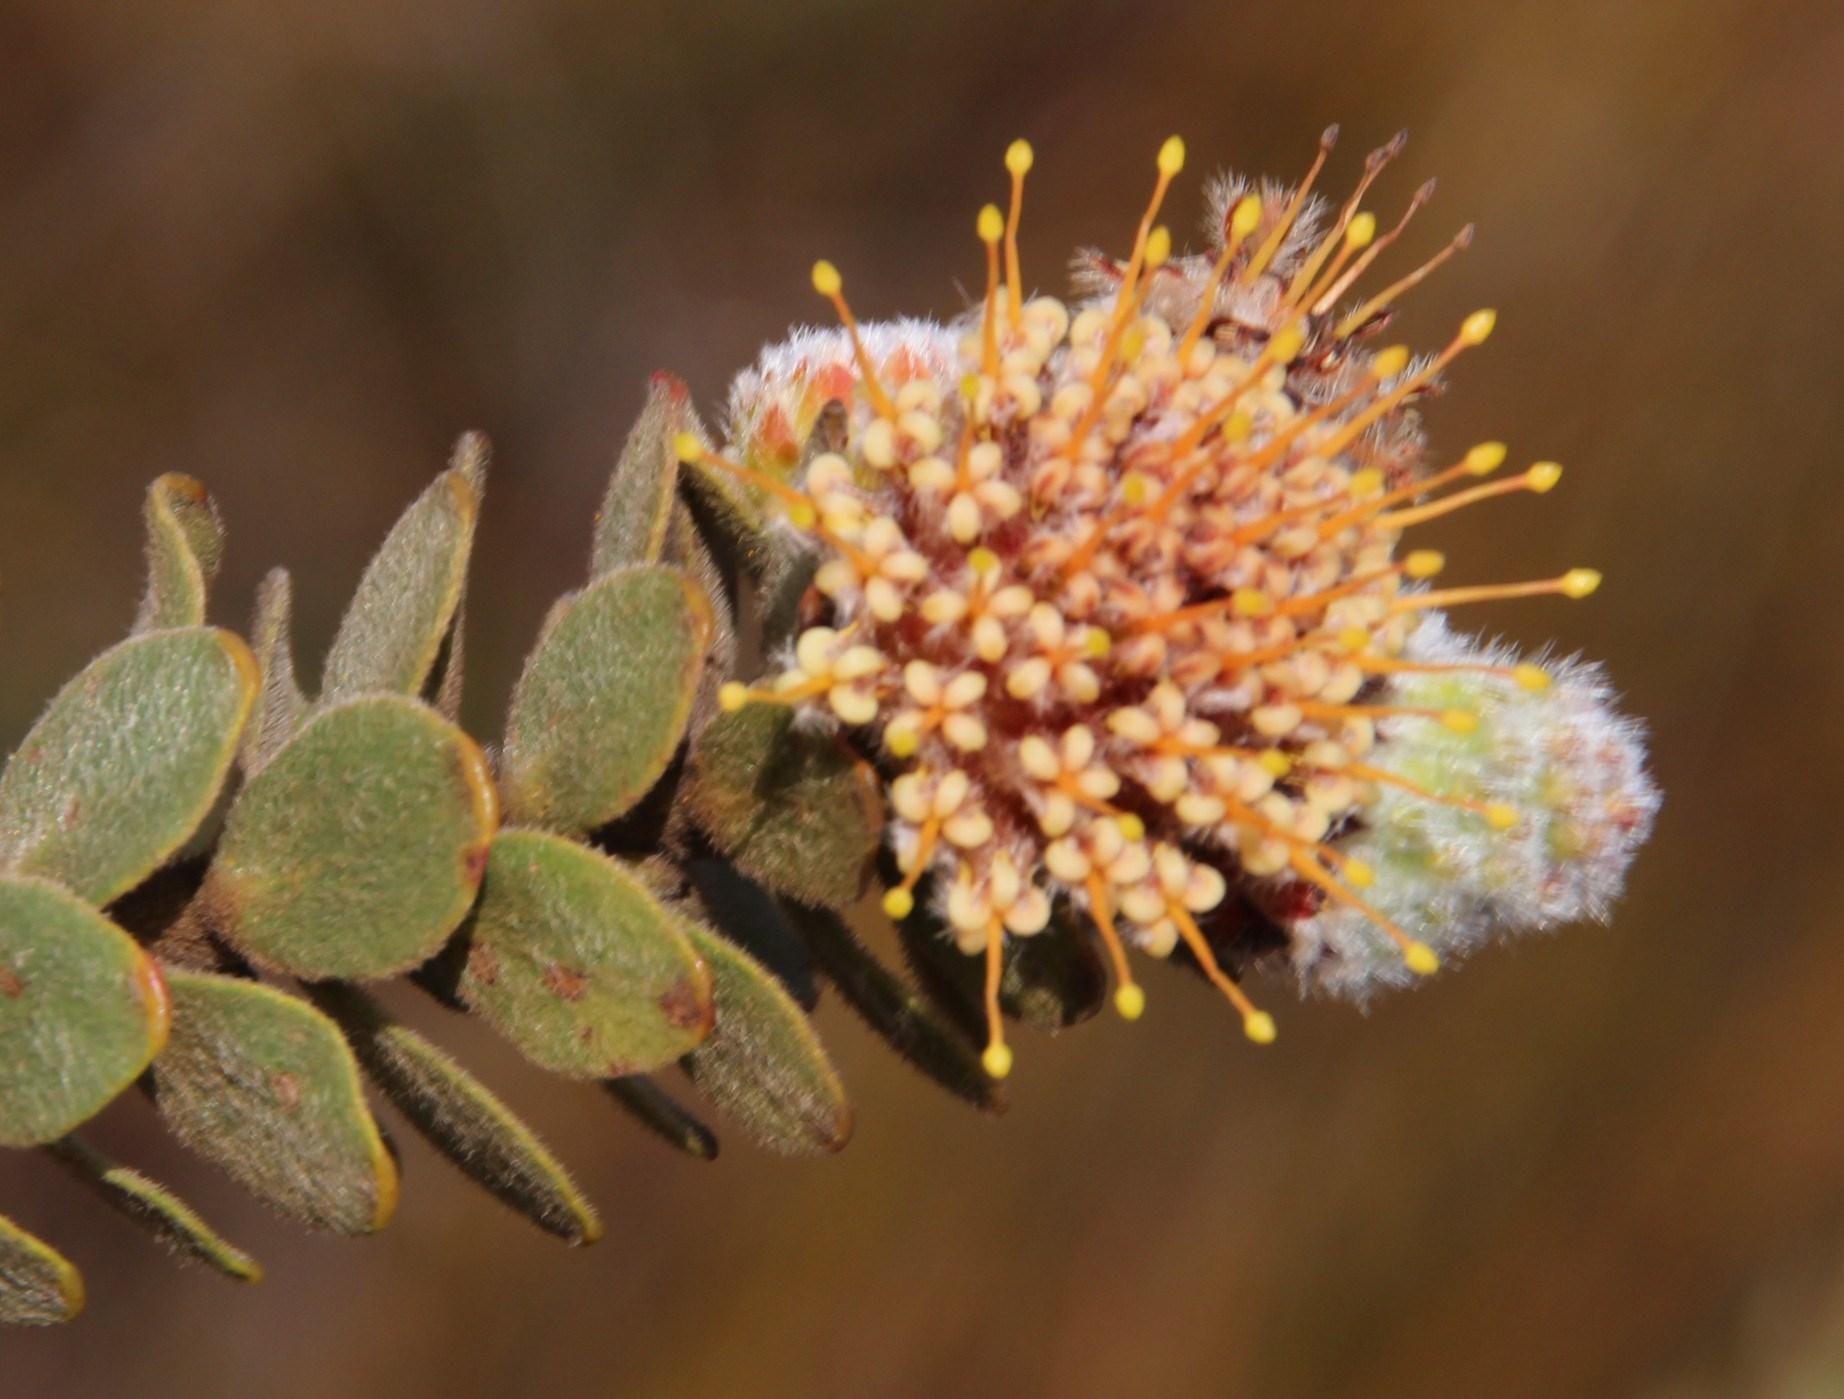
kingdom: Plantae
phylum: Tracheophyta
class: Magnoliopsida
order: Proteales
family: Proteaceae
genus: Leucospermum
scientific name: Leucospermum truncatulum
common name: Oval-leaf pincushion
